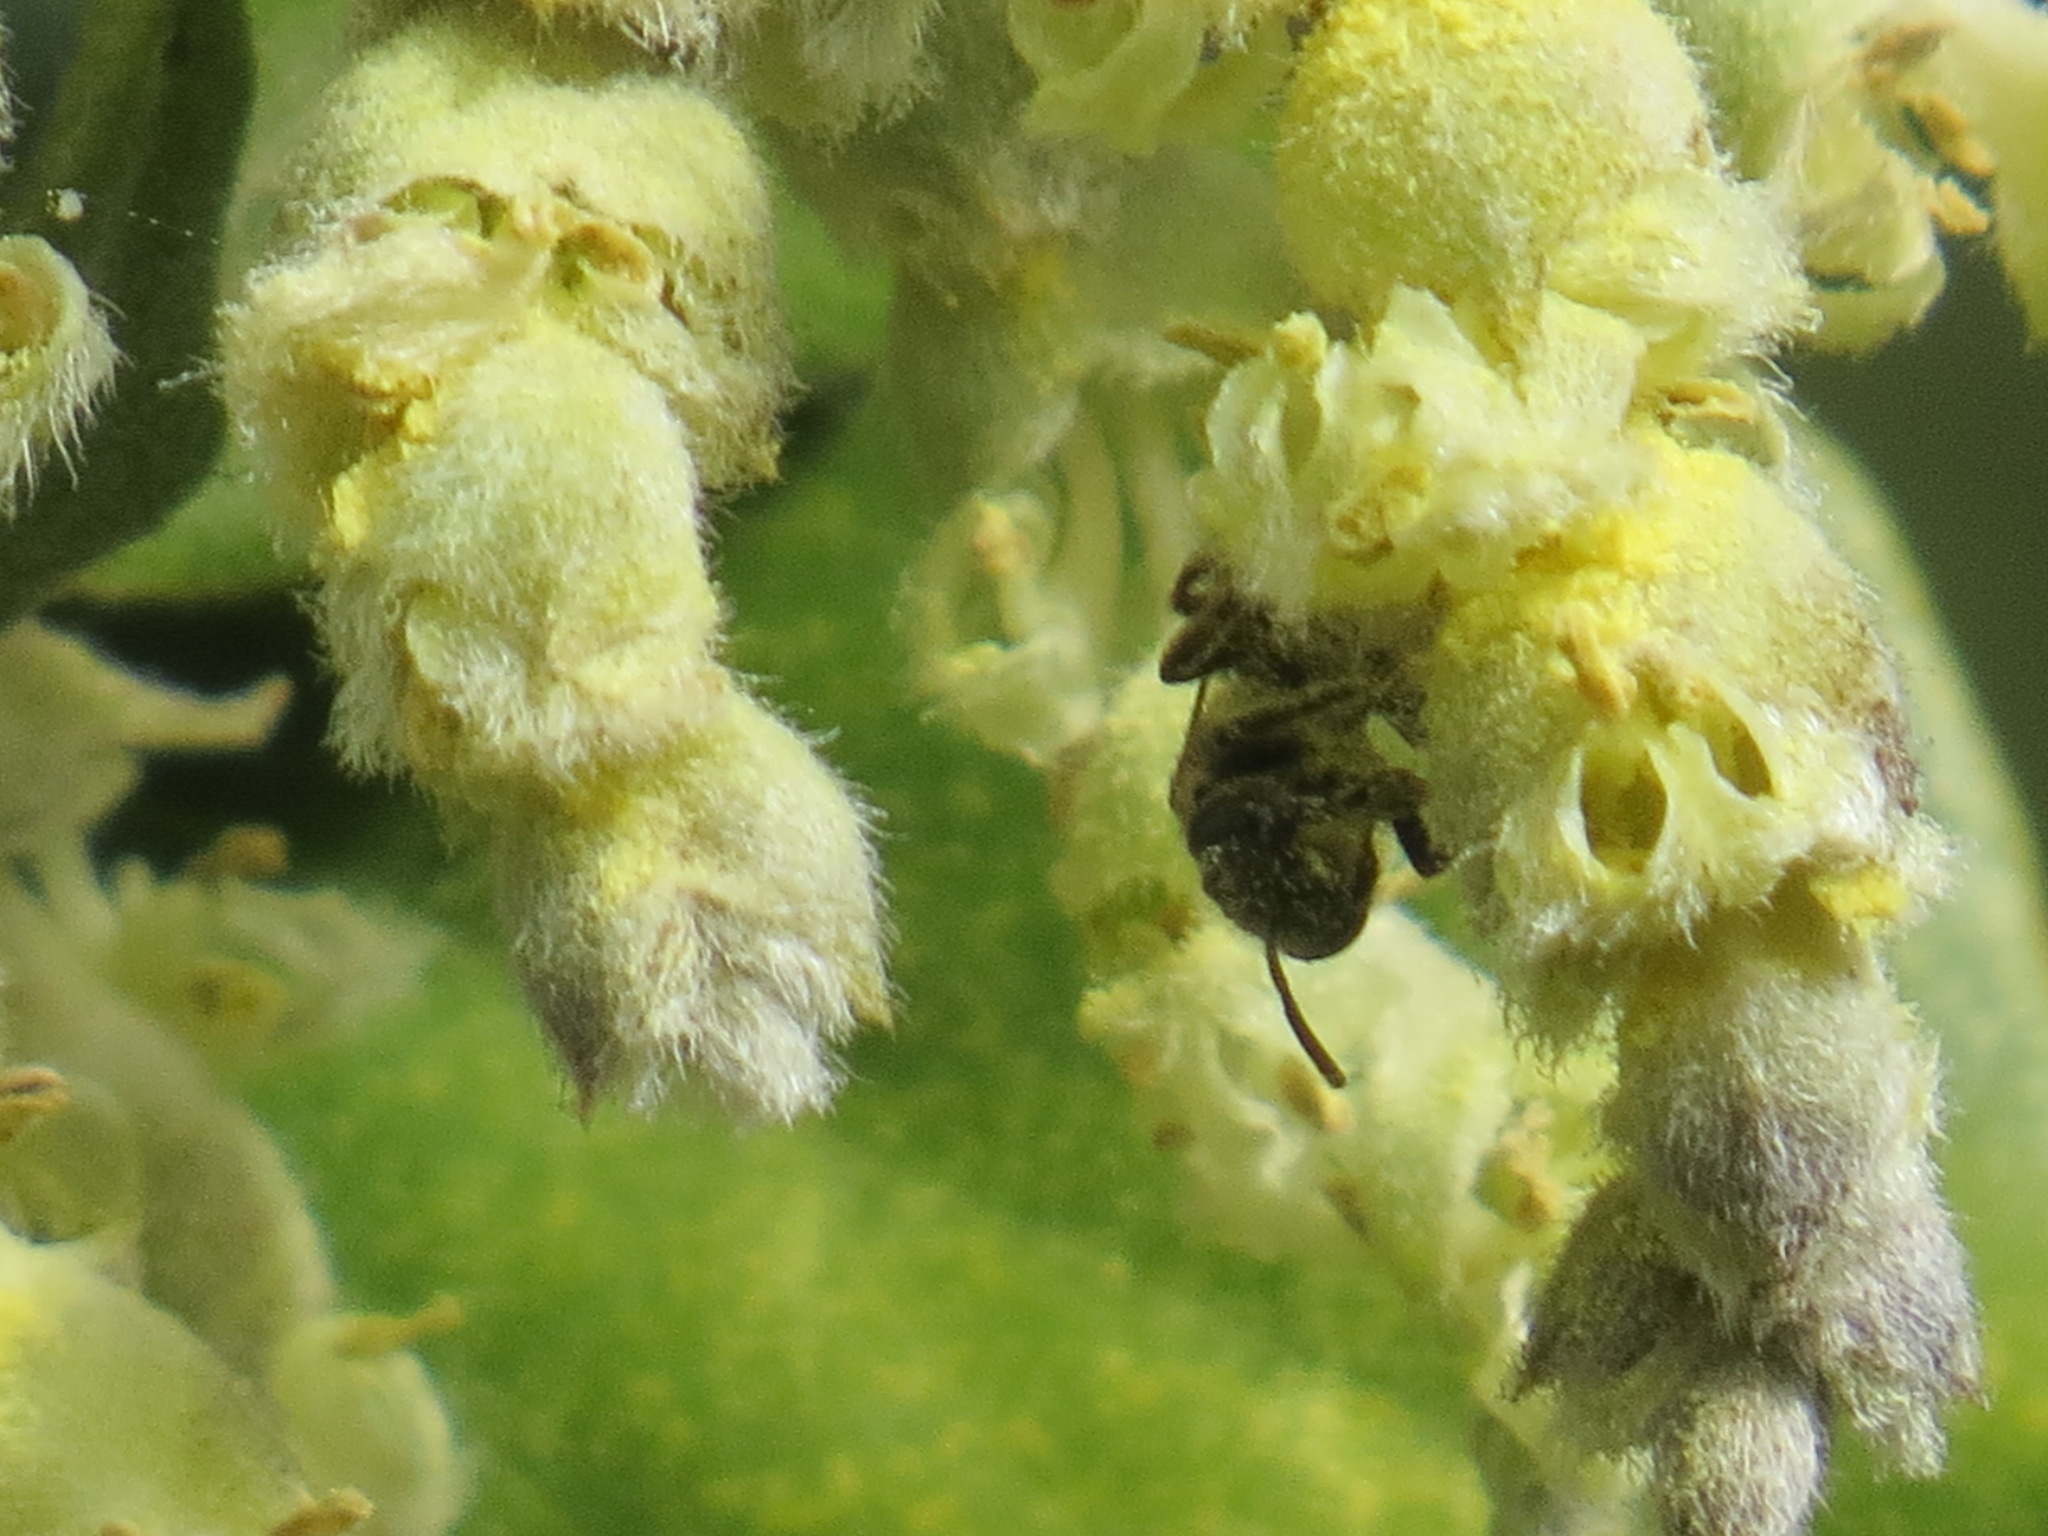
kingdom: Plantae
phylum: Tracheophyta
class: Magnoliopsida
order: Garryales
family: Garryaceae
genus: Garrya
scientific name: Garrya elliptica
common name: Silk-tassel
